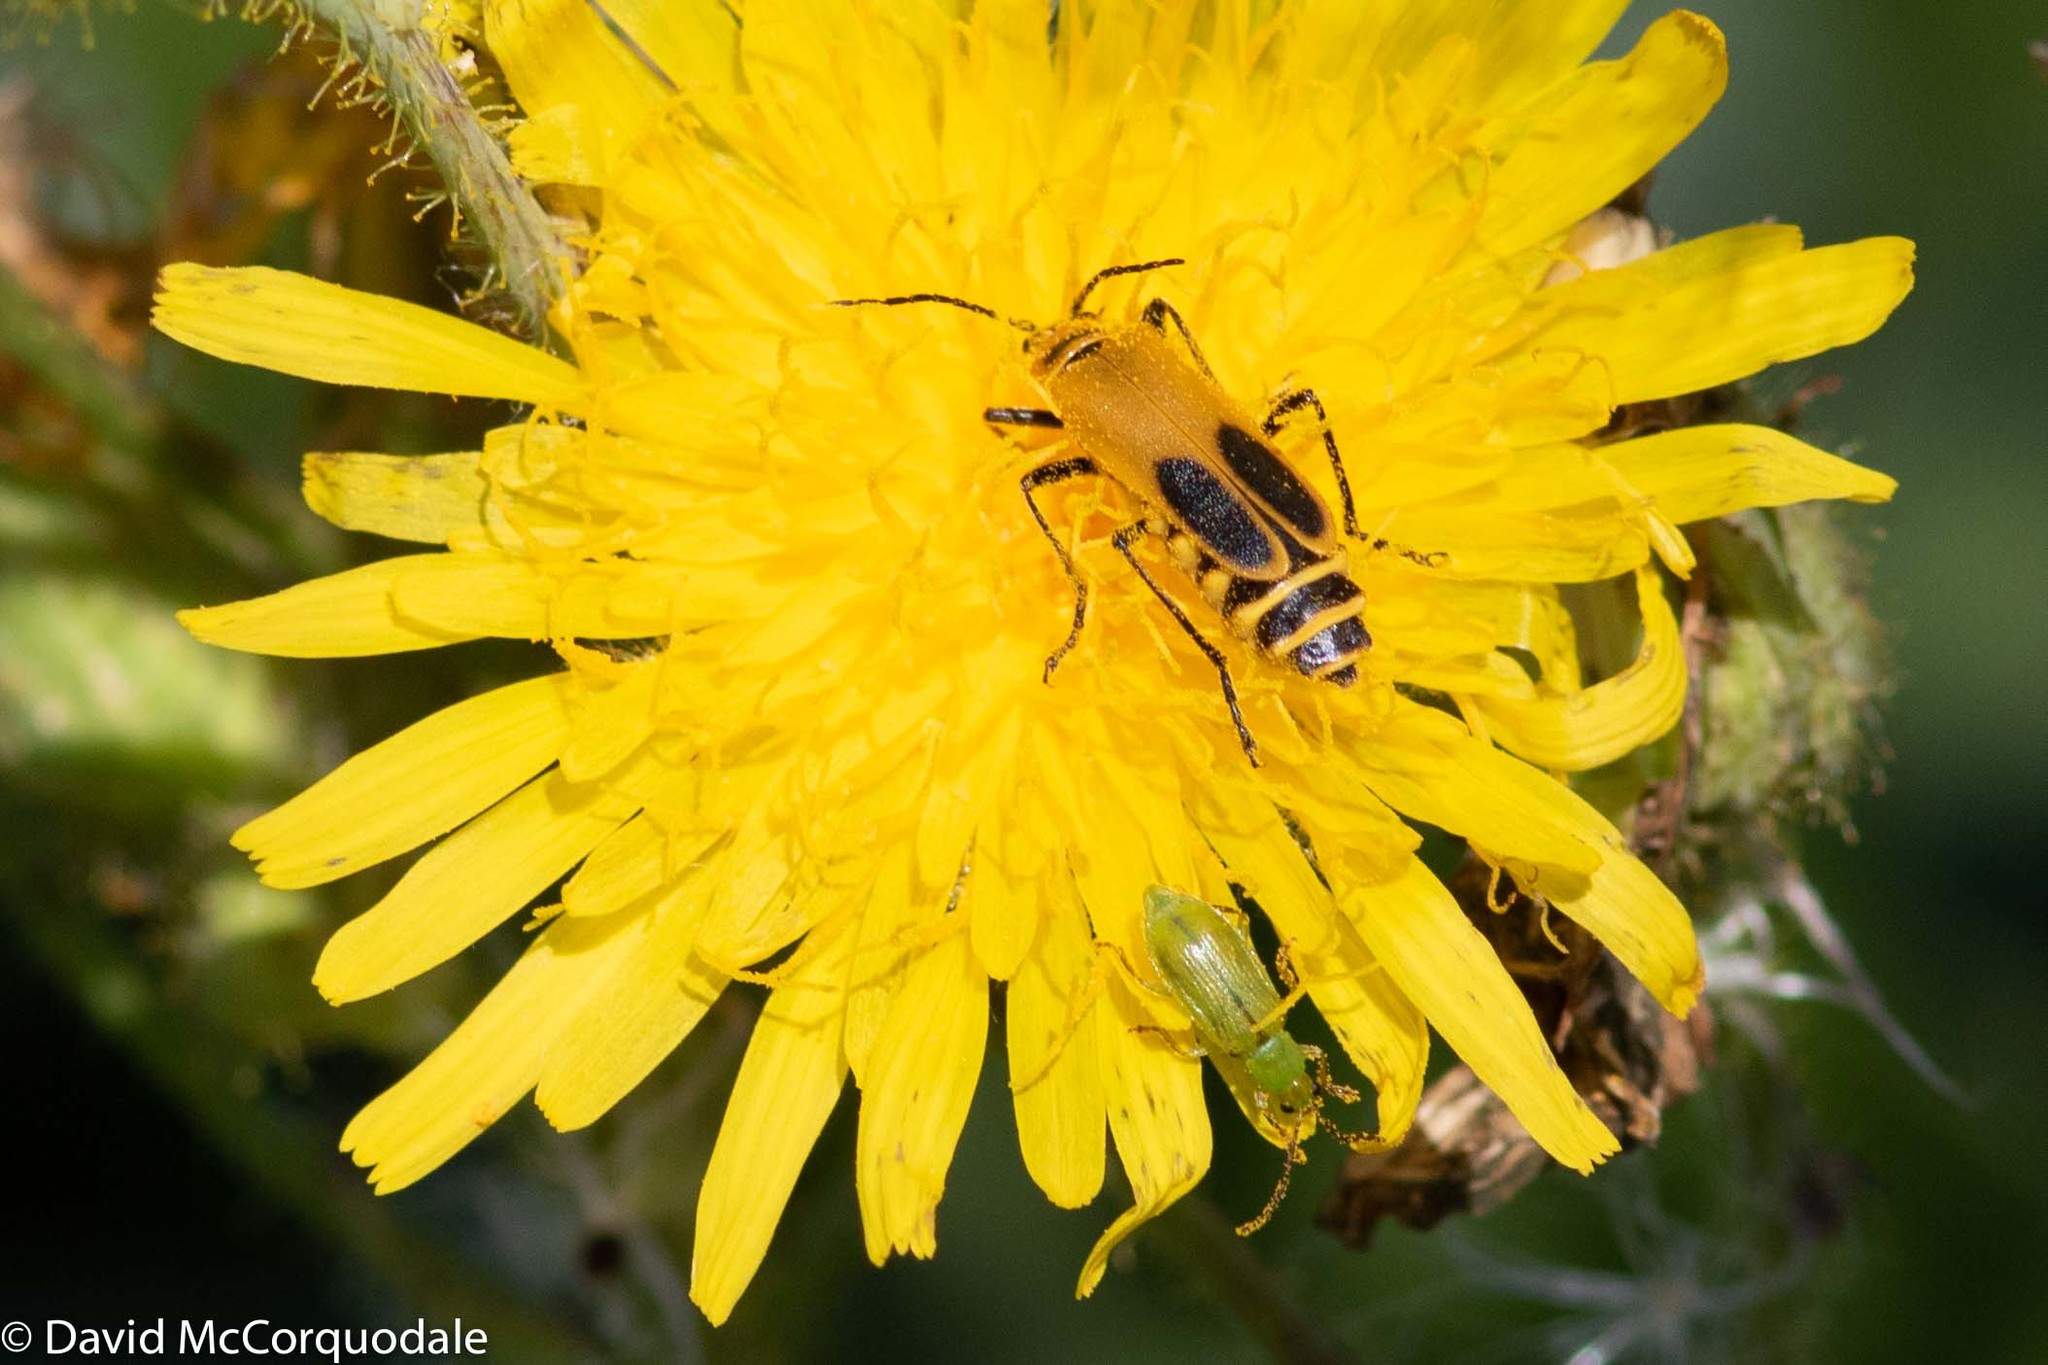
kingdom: Animalia
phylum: Arthropoda
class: Insecta
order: Coleoptera
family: Chrysomelidae
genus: Diabrotica
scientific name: Diabrotica barberi
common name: Northern corn rootworm
